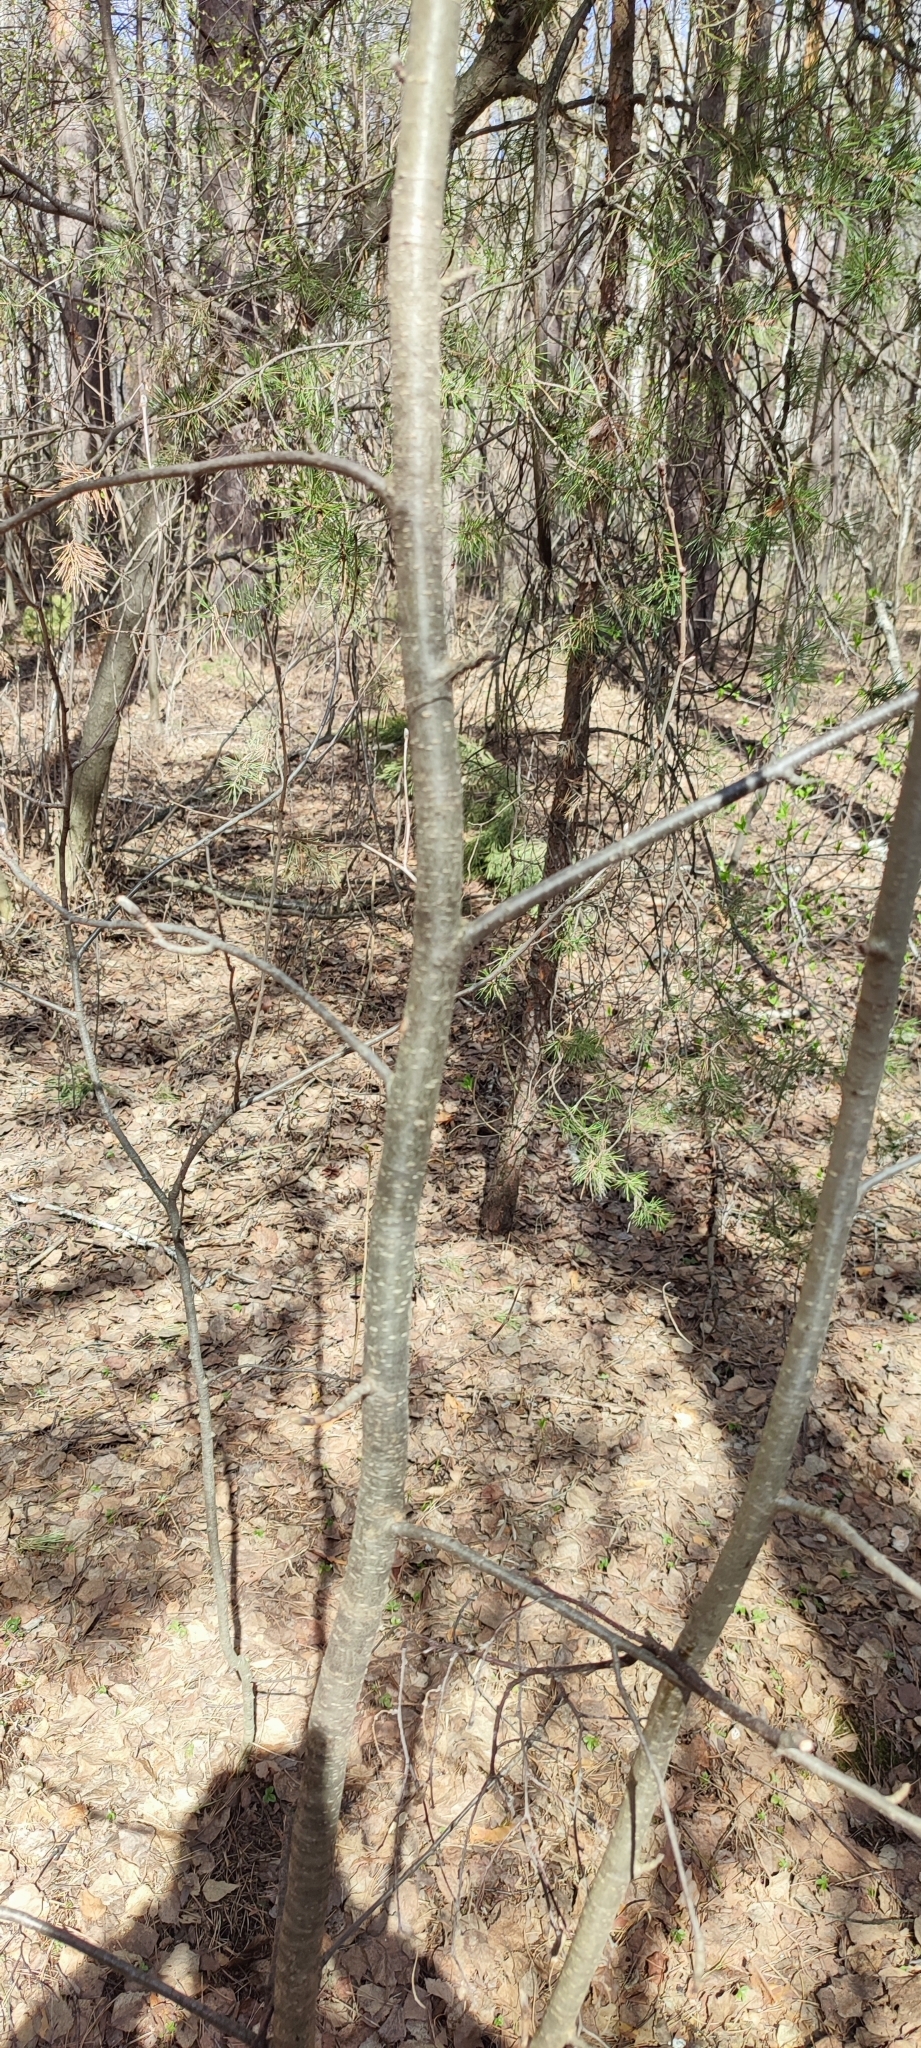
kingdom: Plantae
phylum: Tracheophyta
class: Magnoliopsida
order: Rosales
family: Rosaceae
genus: Sorbus
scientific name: Sorbus aucuparia
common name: Rowan
